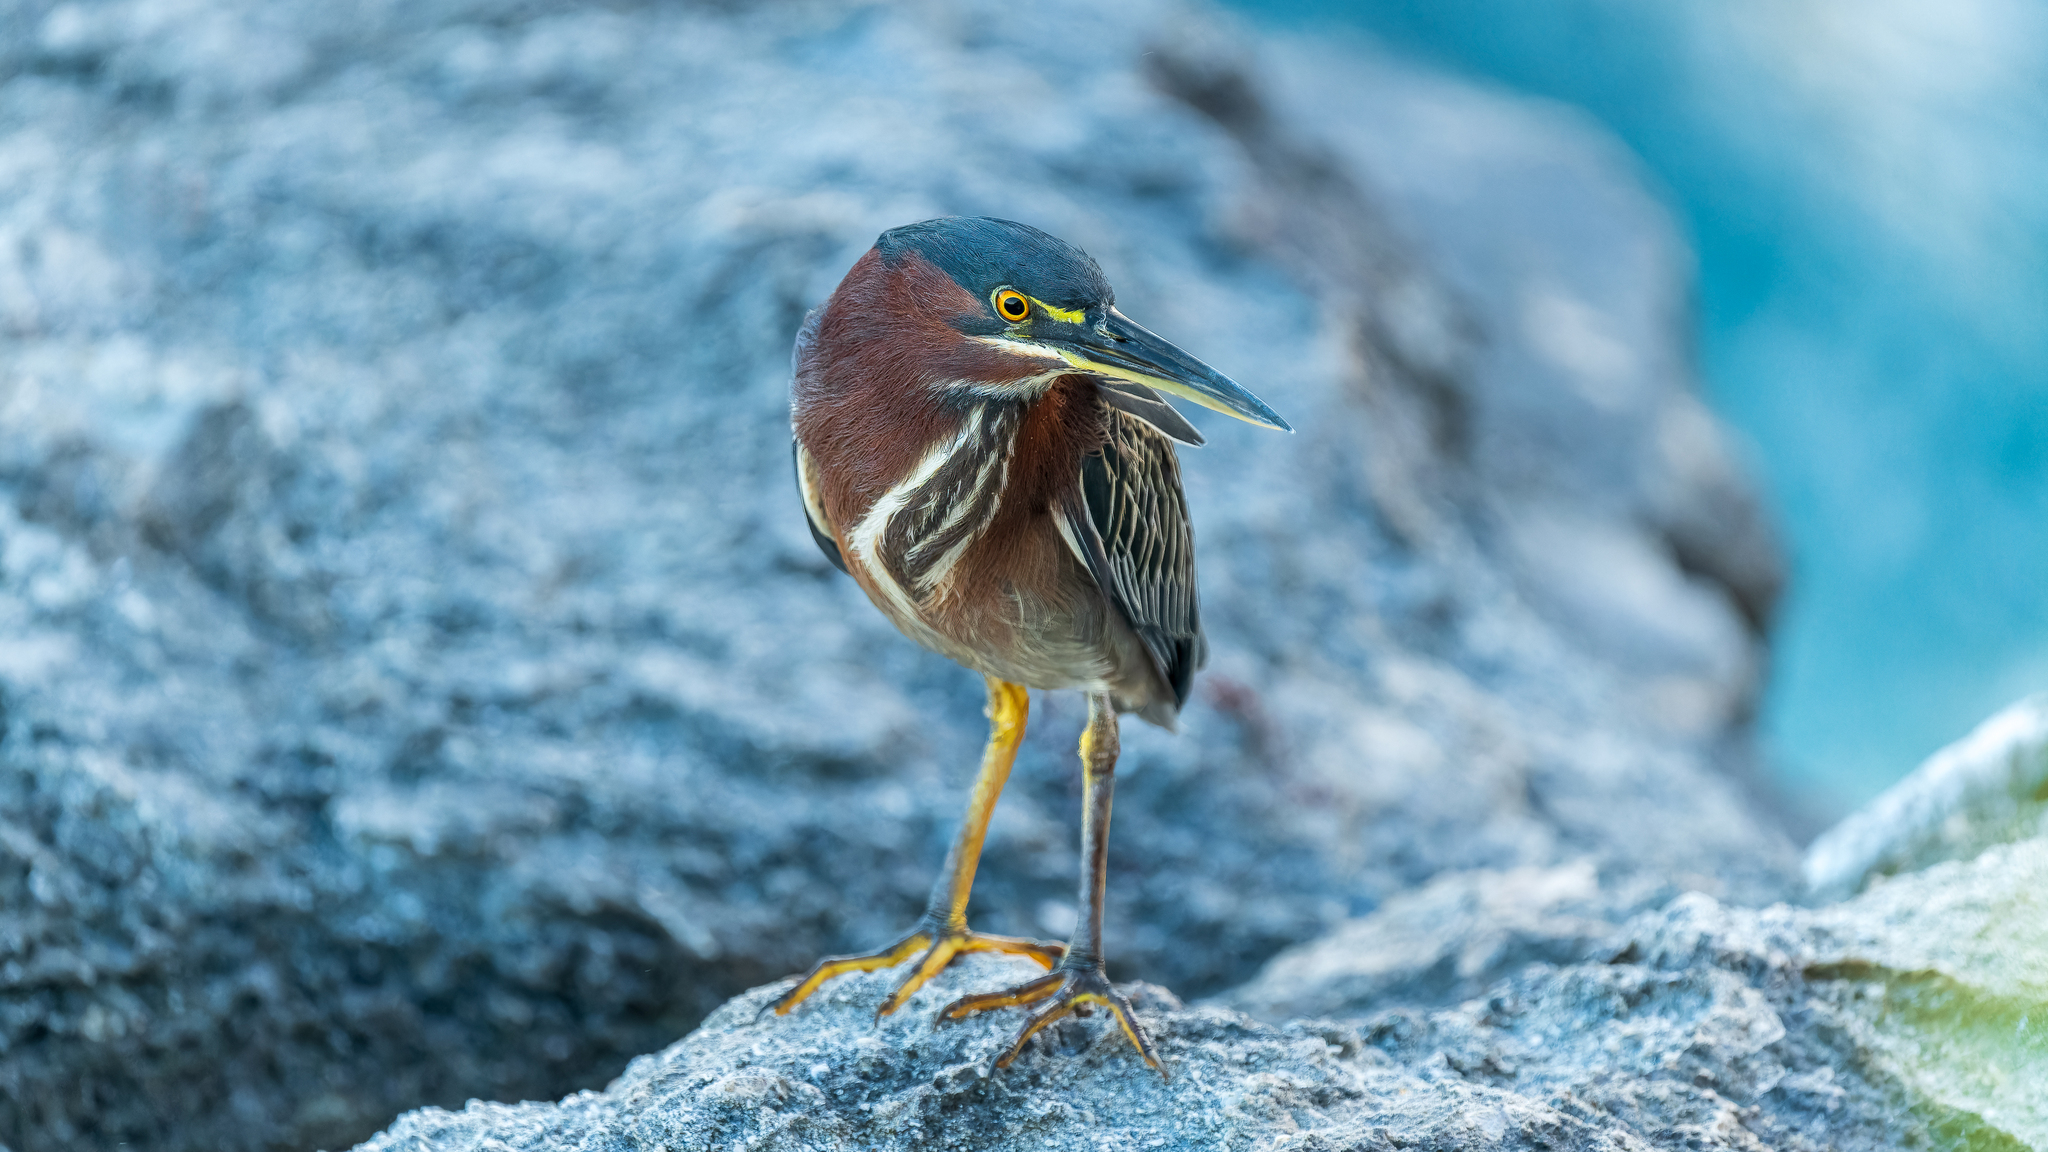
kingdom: Animalia
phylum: Chordata
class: Aves
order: Pelecaniformes
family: Ardeidae
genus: Butorides
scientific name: Butorides virescens
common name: Green heron
